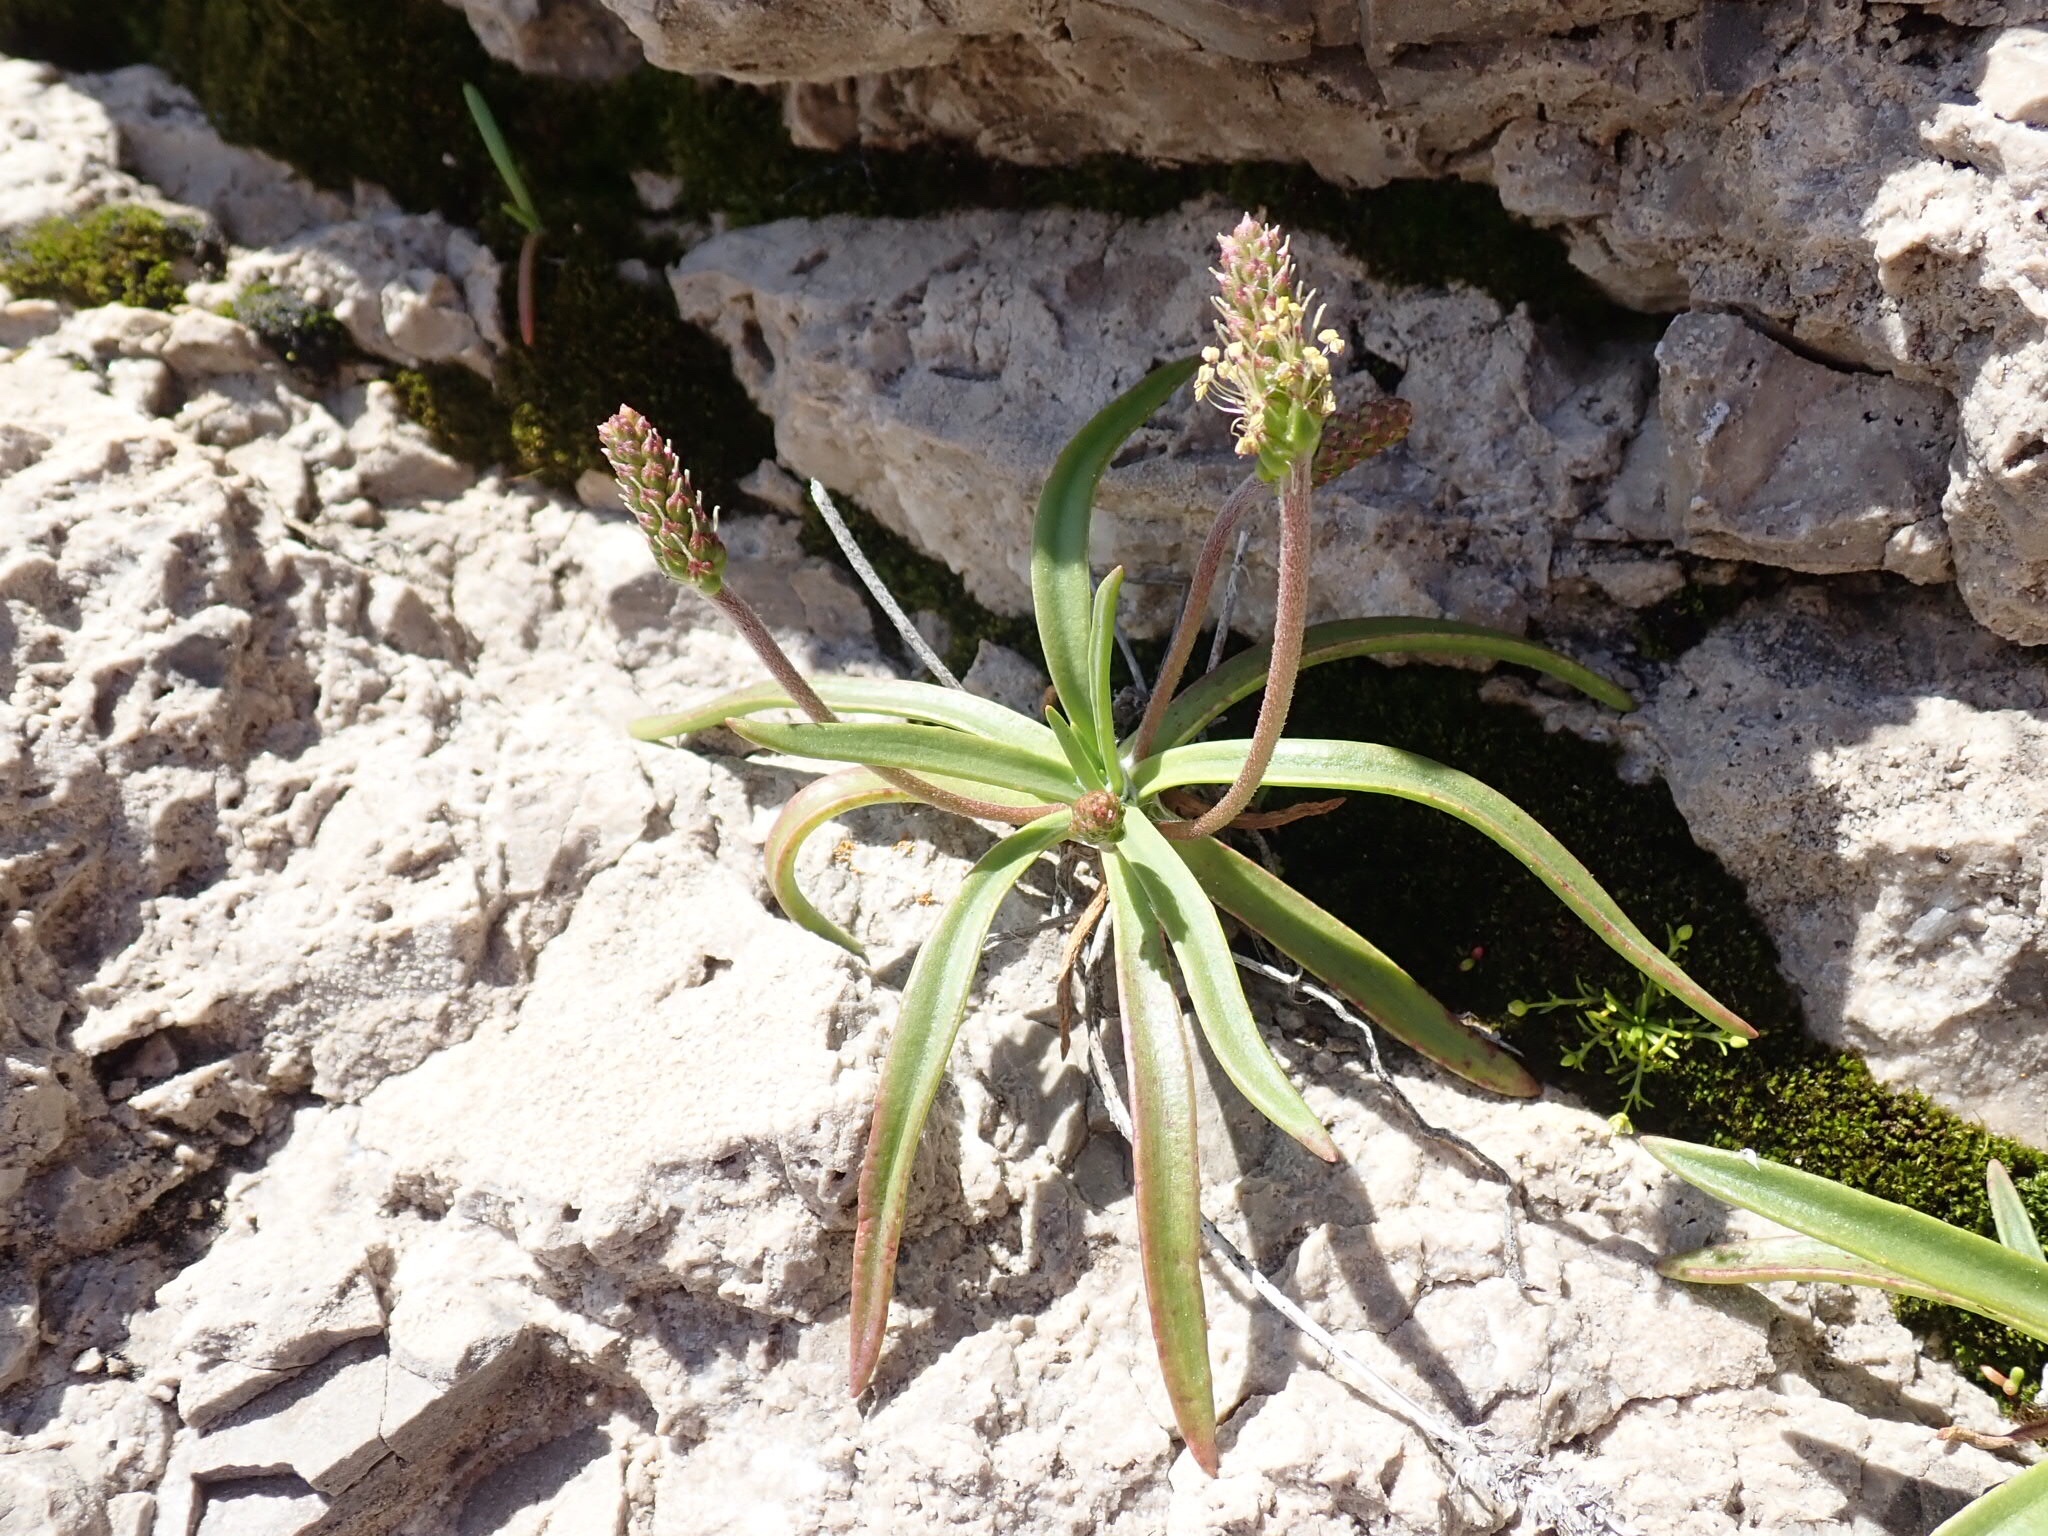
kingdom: Plantae
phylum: Tracheophyta
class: Magnoliopsida
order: Lamiales
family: Plantaginaceae
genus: Plantago
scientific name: Plantago maritima
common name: Sea plantain
